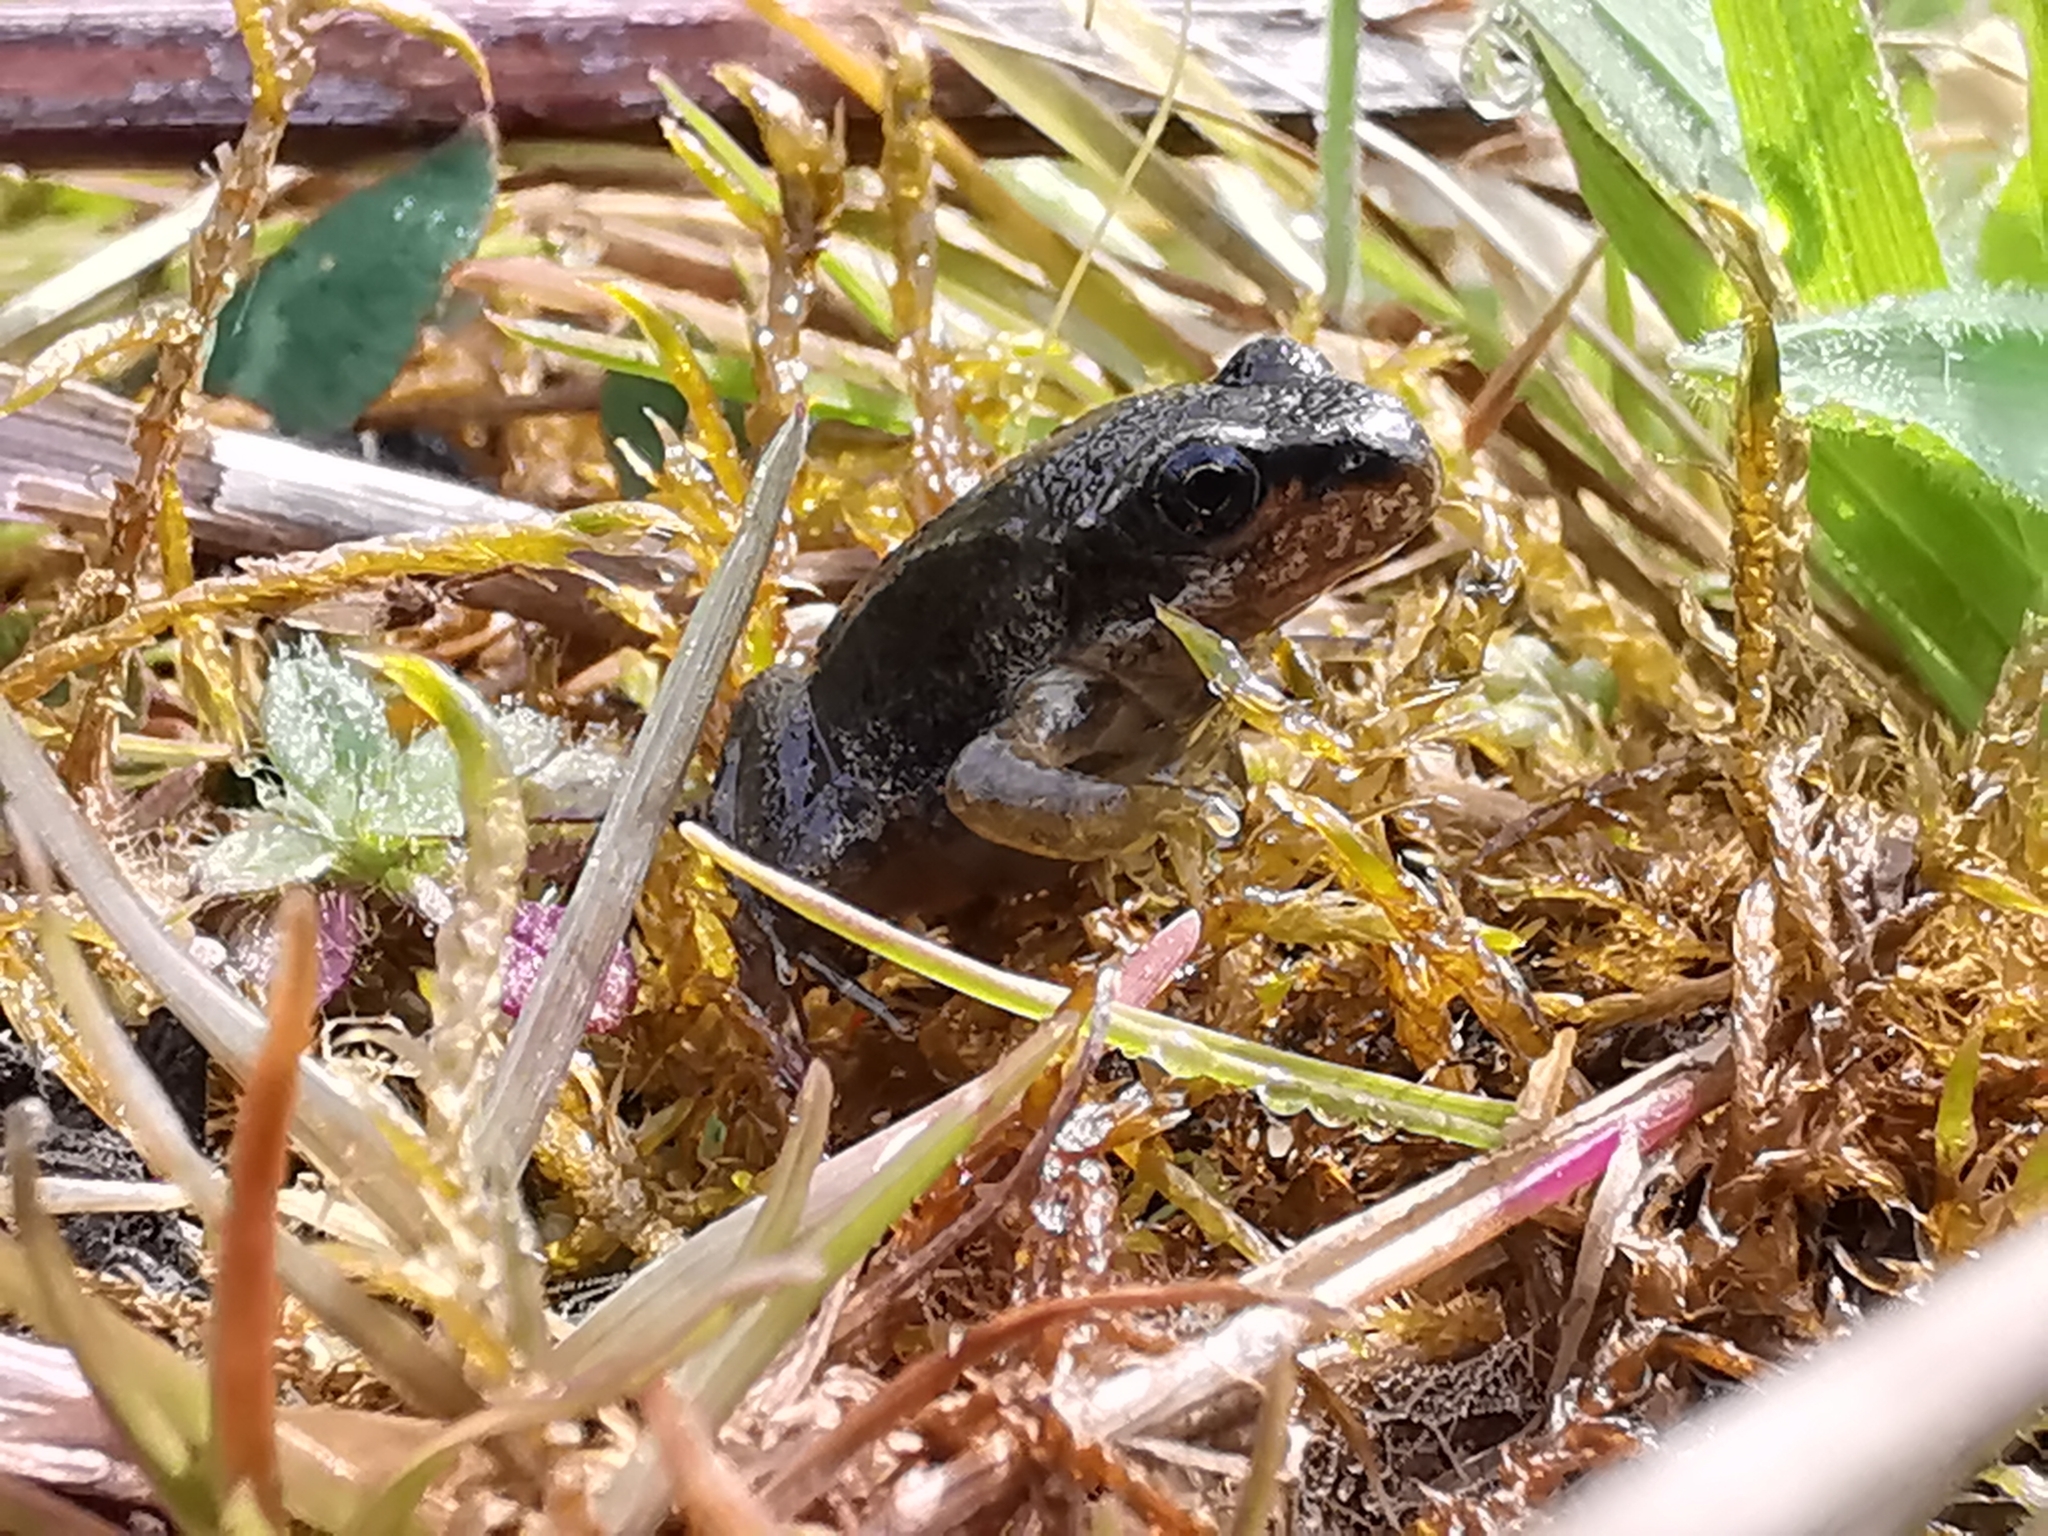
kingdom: Animalia
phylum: Chordata
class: Amphibia
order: Anura
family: Ranidae
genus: Rana
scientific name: Rana temporaria
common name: Common frog
